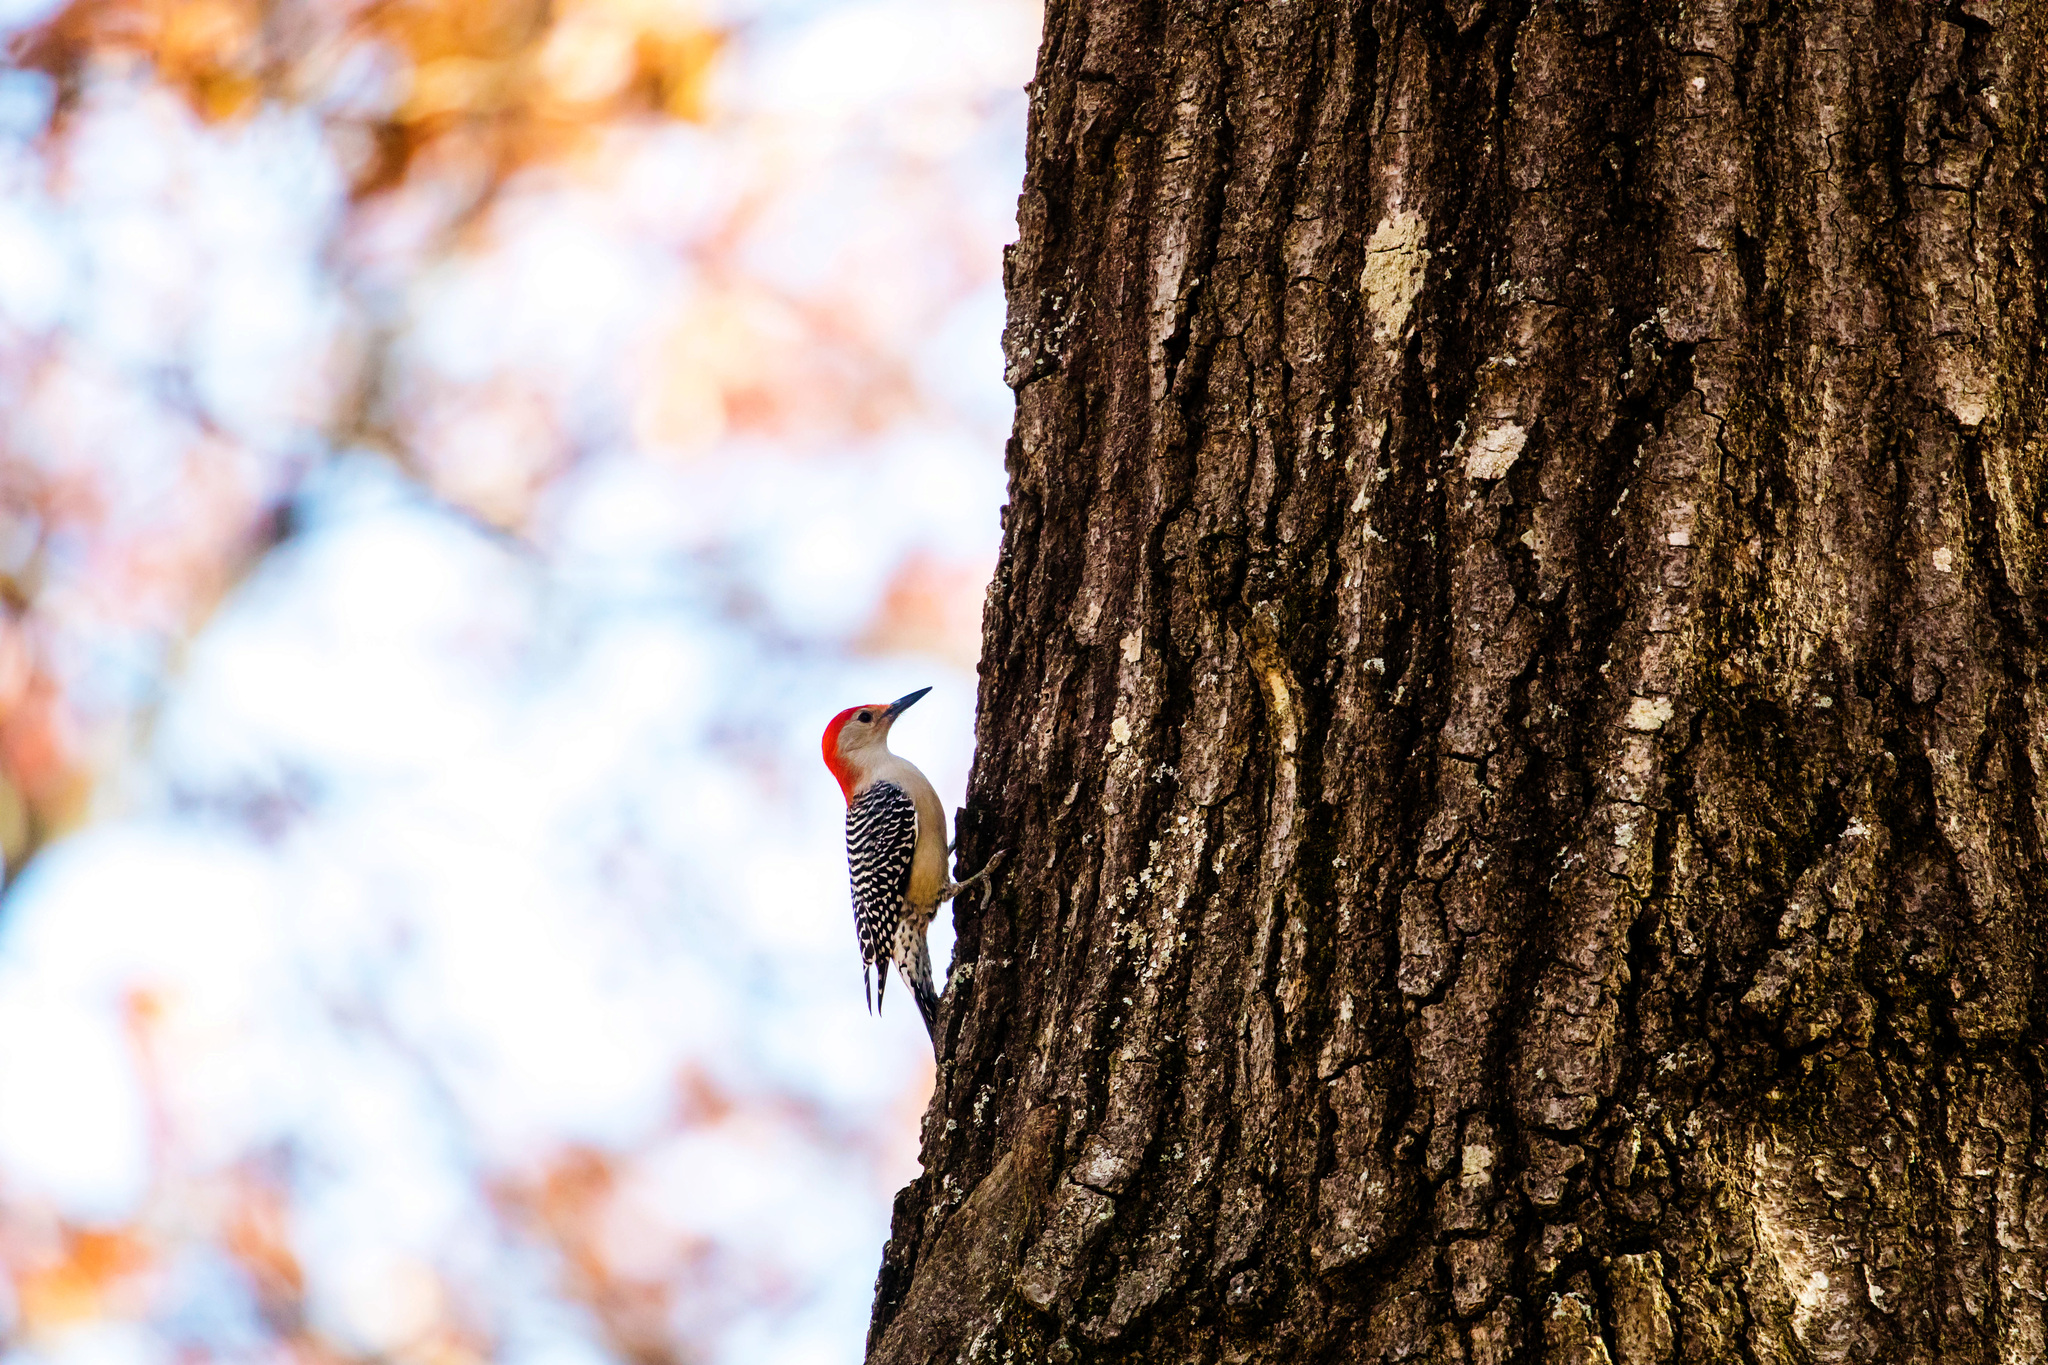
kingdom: Animalia
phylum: Chordata
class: Aves
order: Piciformes
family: Picidae
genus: Melanerpes
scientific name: Melanerpes carolinus
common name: Red-bellied woodpecker
